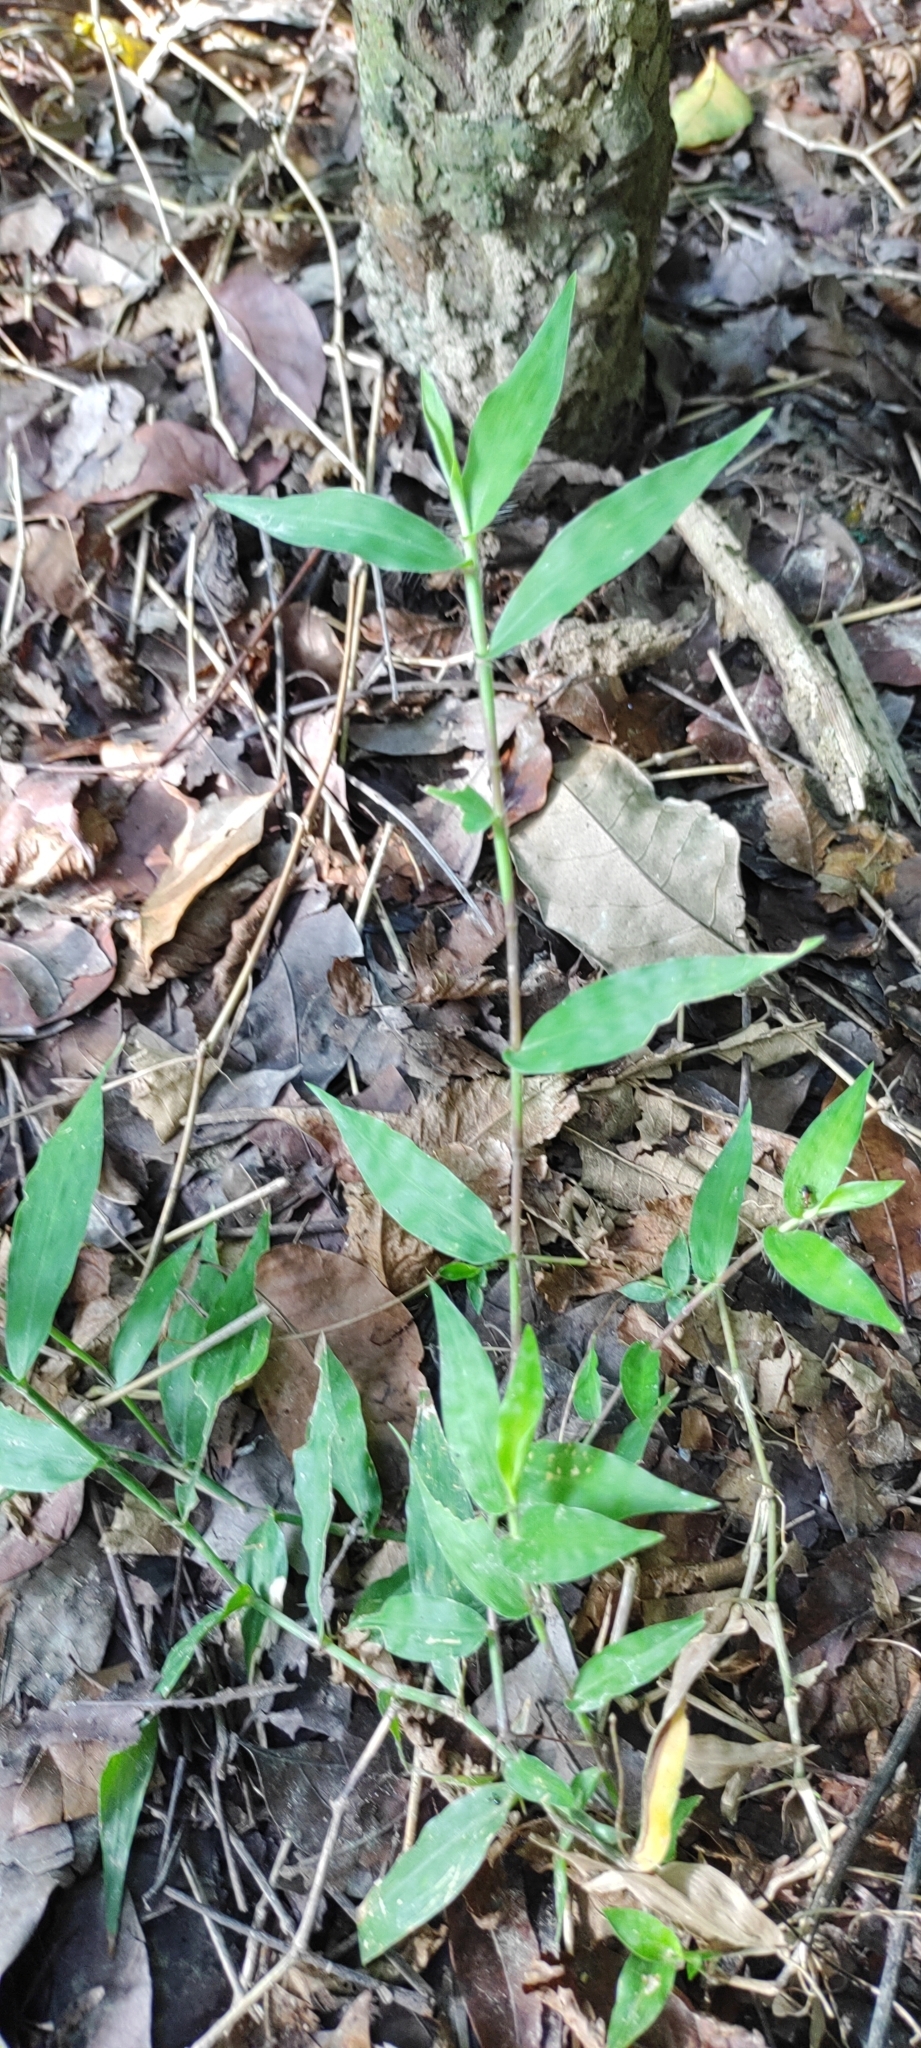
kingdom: Plantae
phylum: Tracheophyta
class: Liliopsida
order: Poales
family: Poaceae
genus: Oplismenus
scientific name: Oplismenus compositus
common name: Running mountain grass
